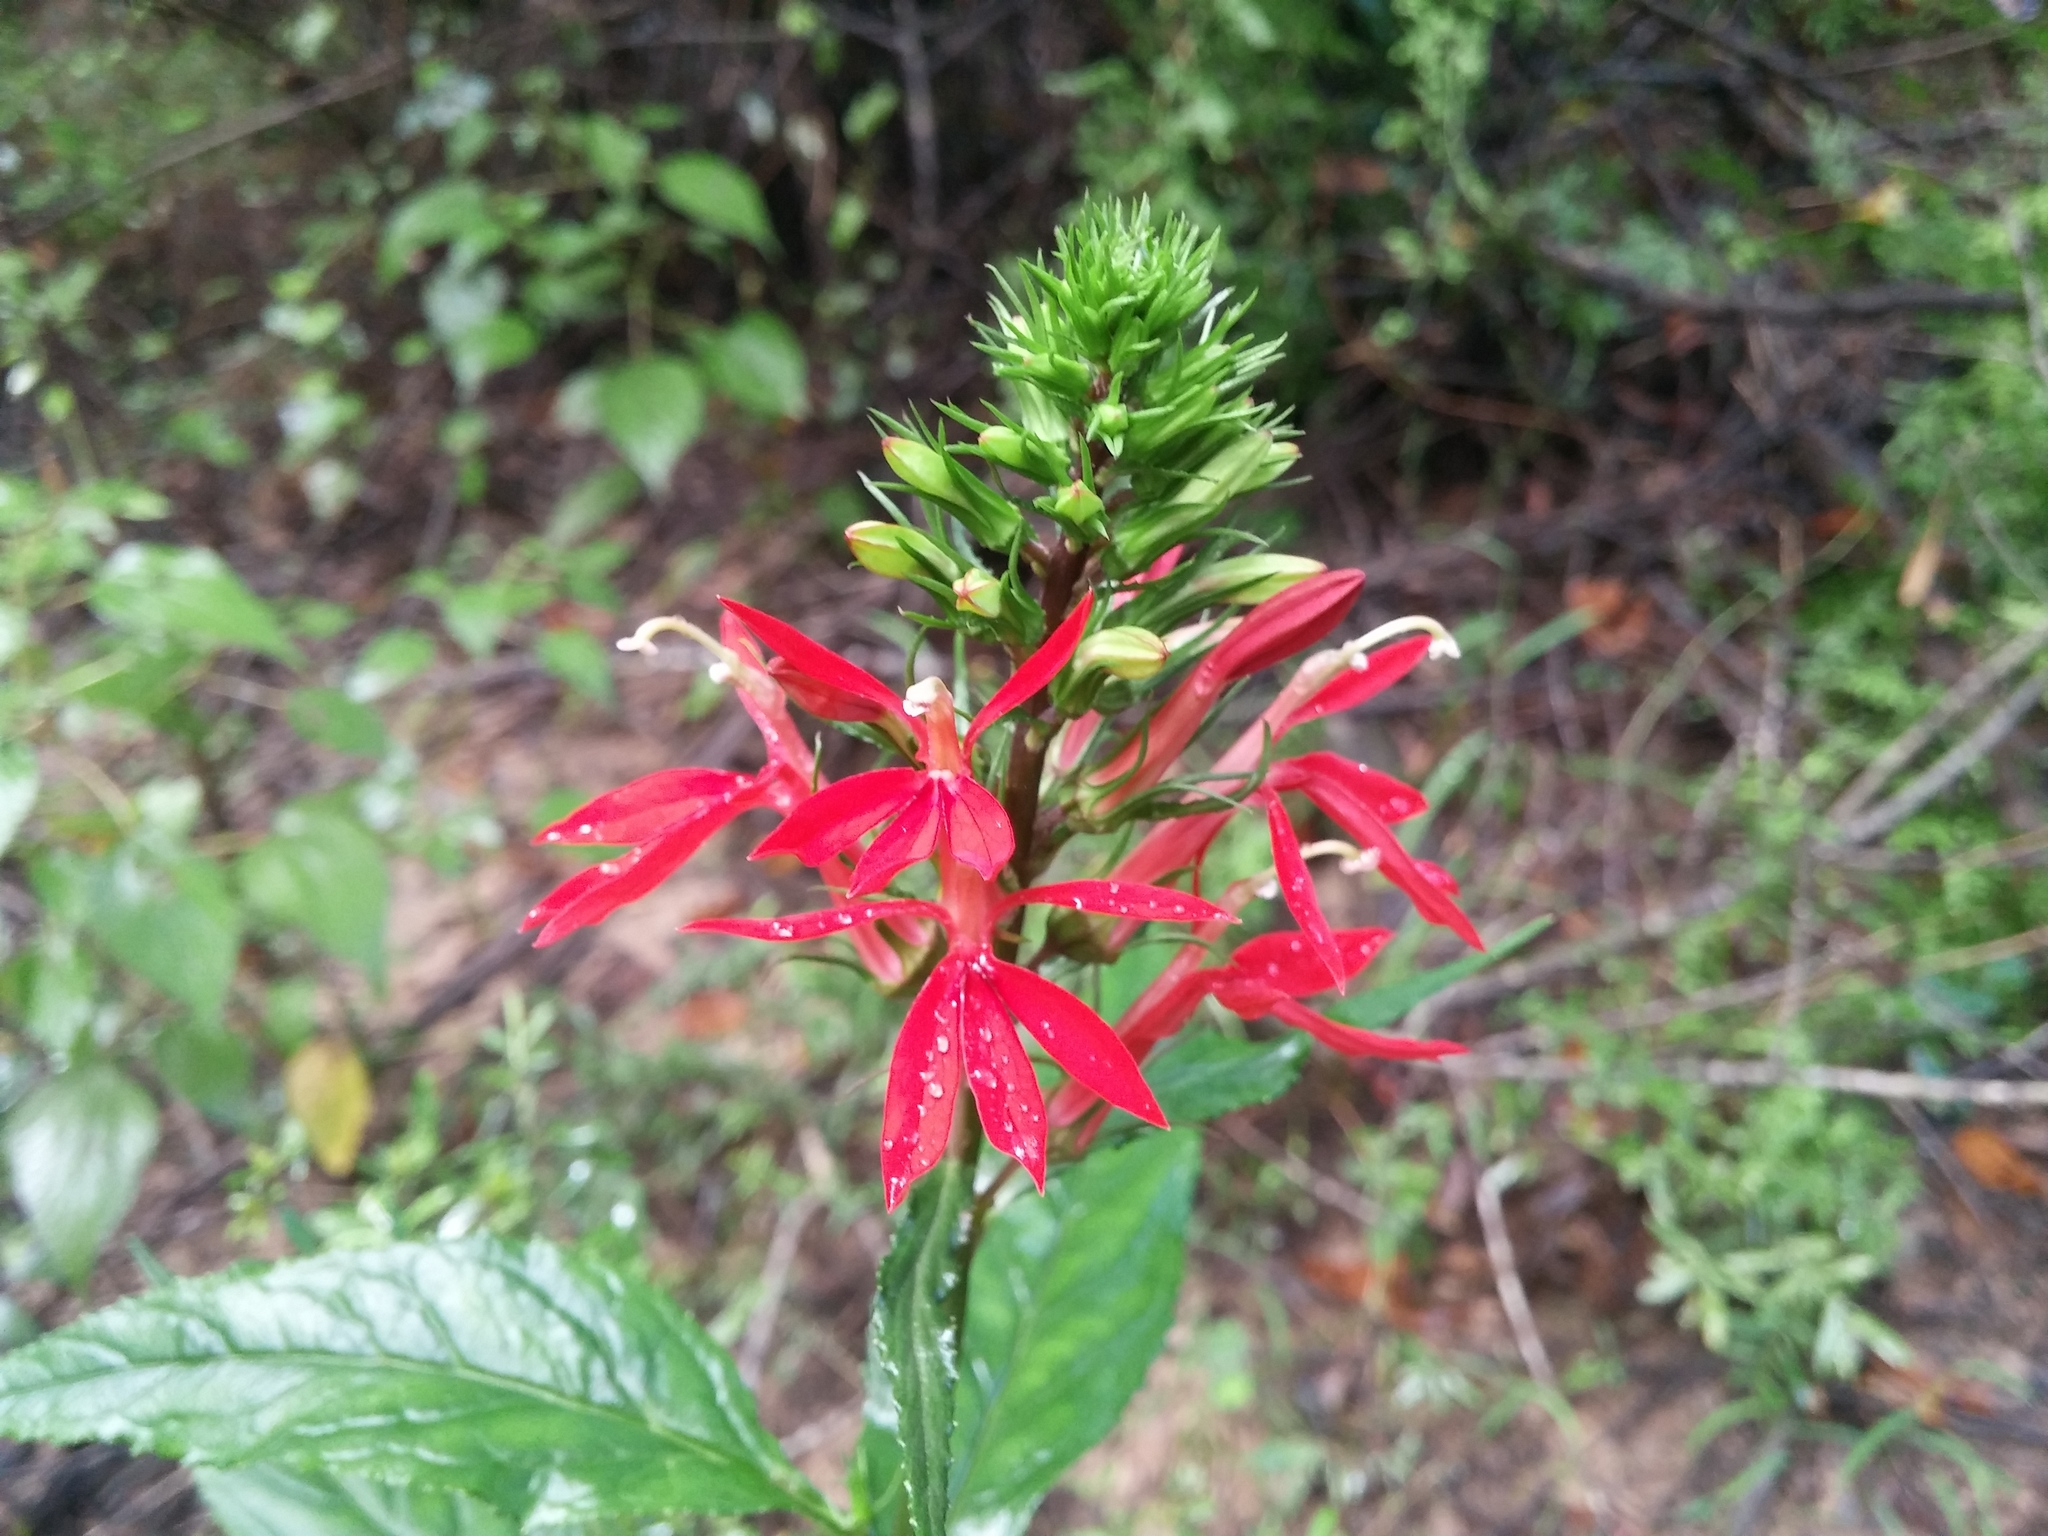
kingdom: Plantae
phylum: Tracheophyta
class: Magnoliopsida
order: Asterales
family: Campanulaceae
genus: Lobelia
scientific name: Lobelia cardinalis
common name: Cardinal flower
